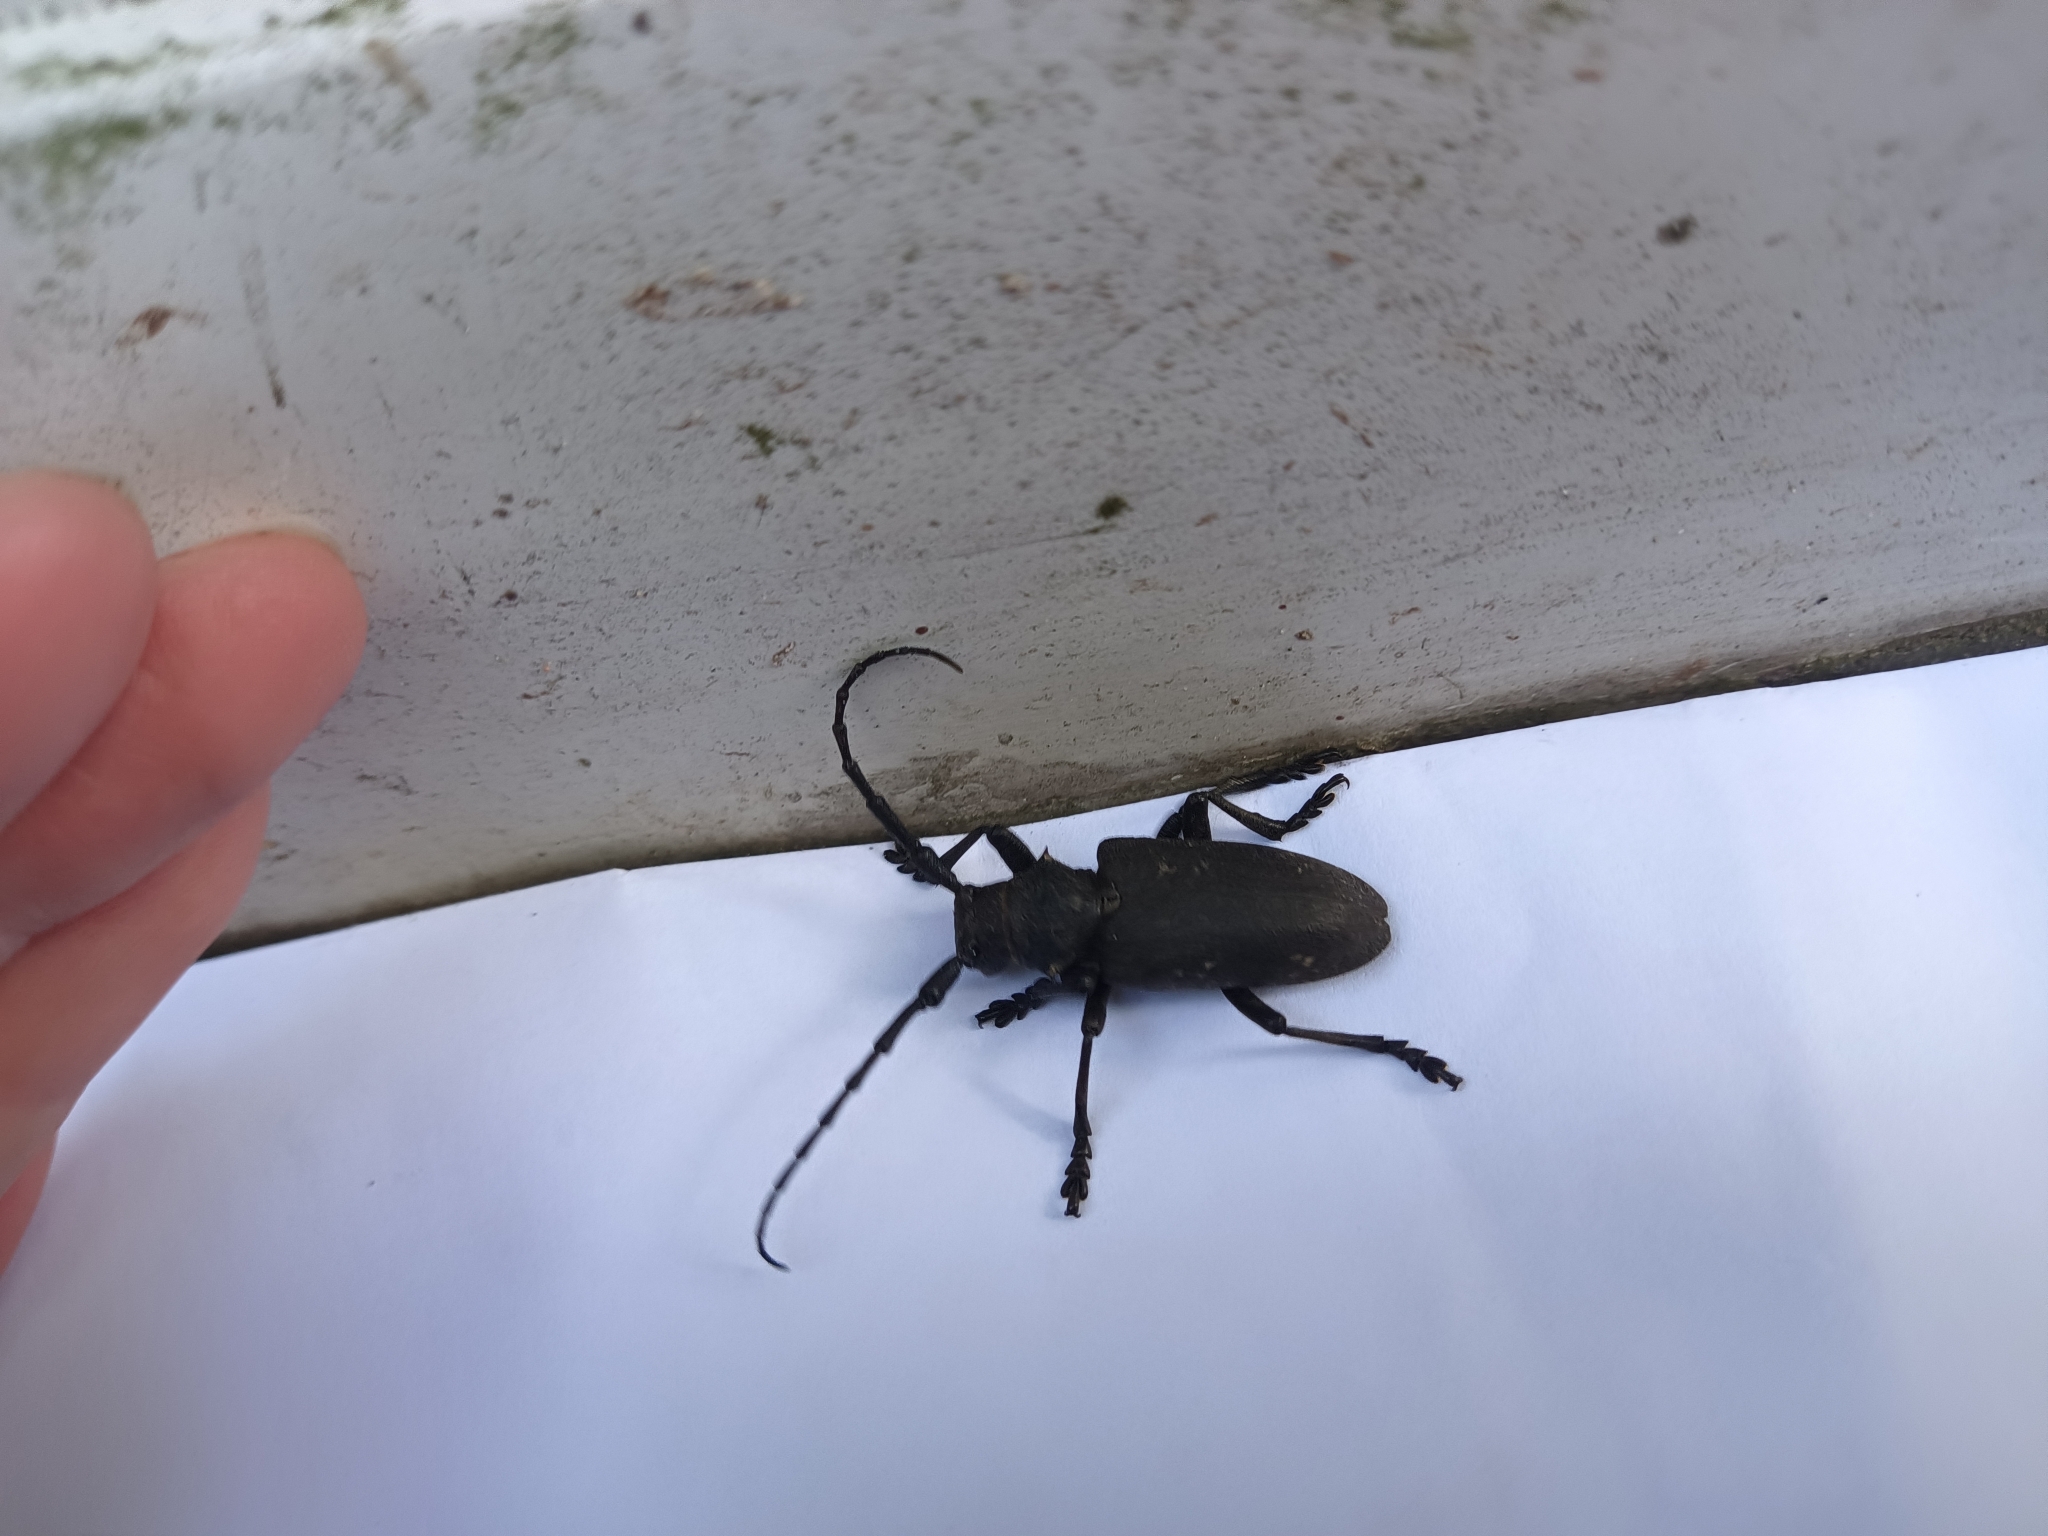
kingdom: Animalia
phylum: Arthropoda
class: Insecta
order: Coleoptera
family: Cerambycidae
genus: Lamia
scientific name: Lamia textor
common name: Weaver beetle
